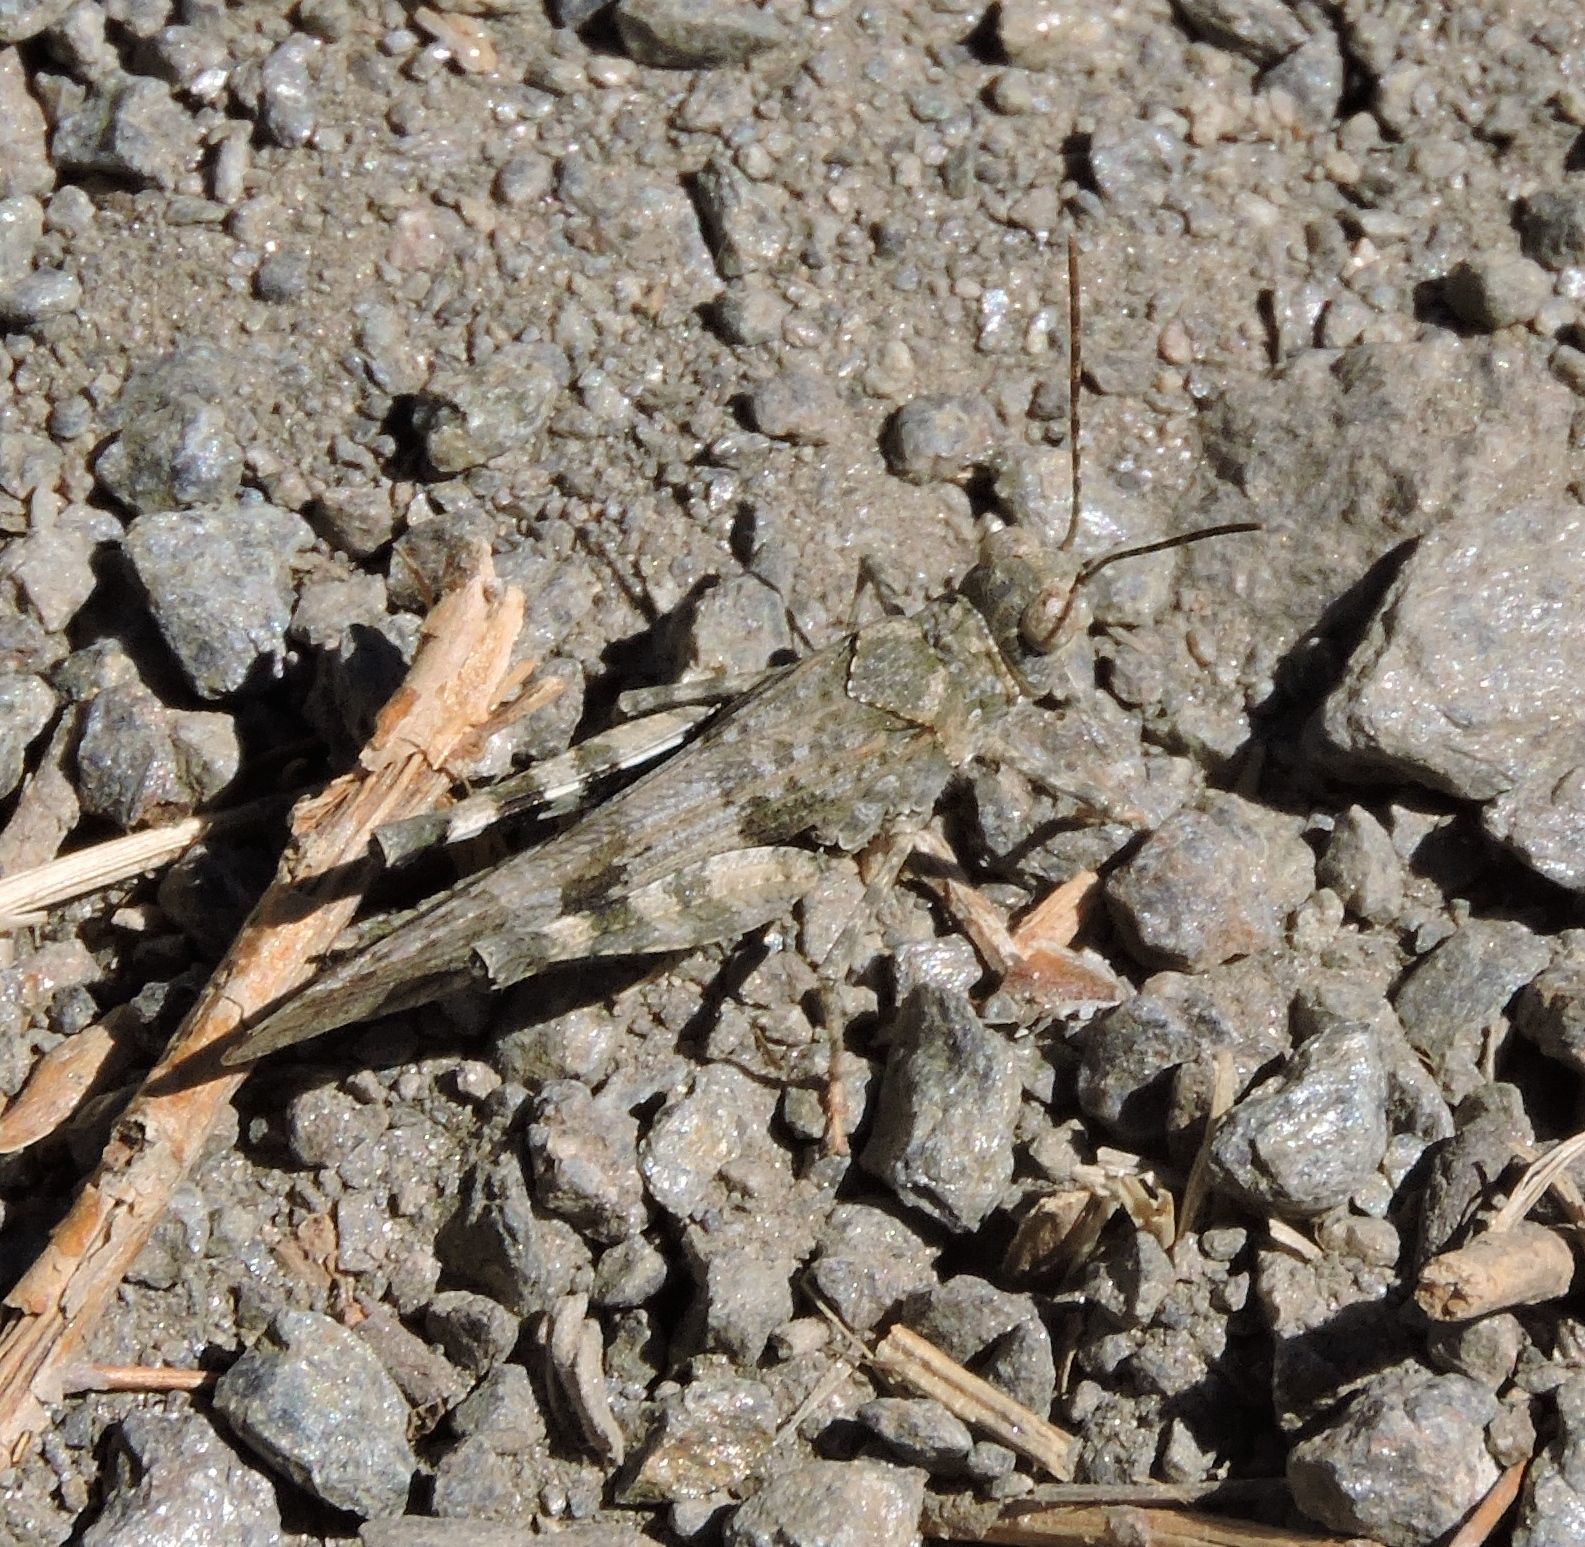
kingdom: Animalia
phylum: Arthropoda
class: Insecta
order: Orthoptera
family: Acrididae
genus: Trimerotropis
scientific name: Trimerotropis fontana
